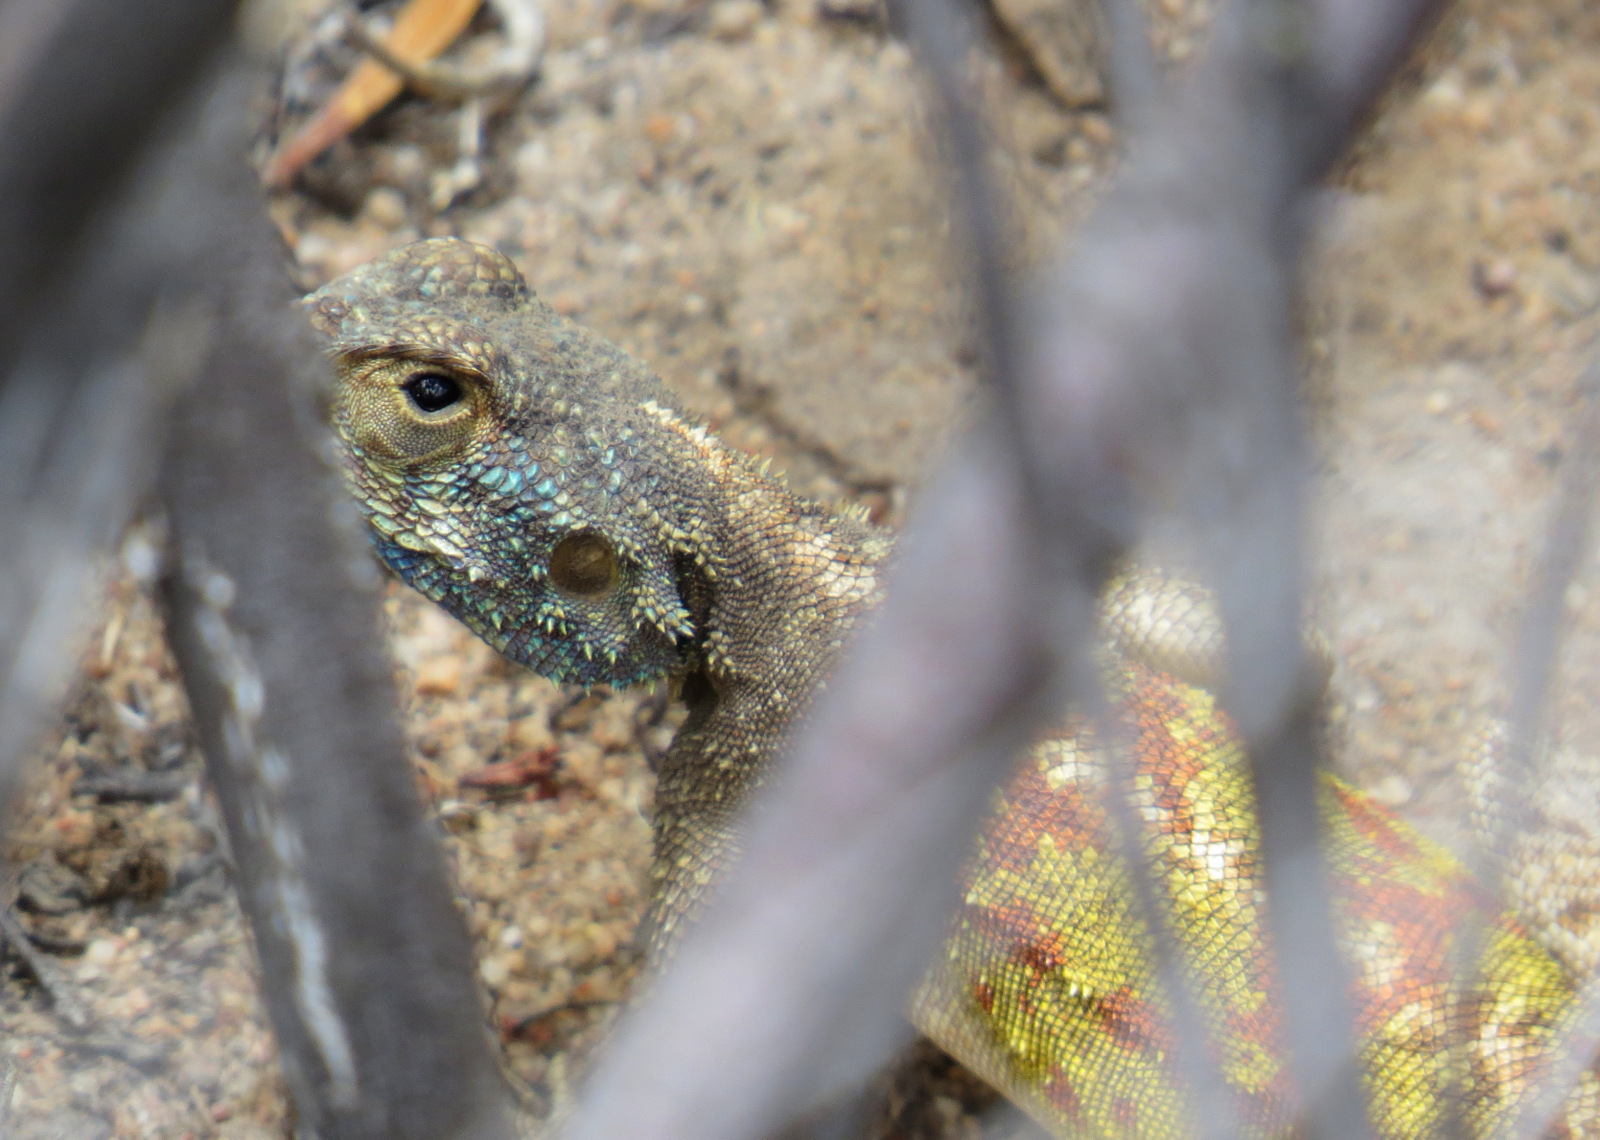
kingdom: Animalia
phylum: Chordata
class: Squamata
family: Agamidae
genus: Agama
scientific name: Agama atra
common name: Southern african rock agama
